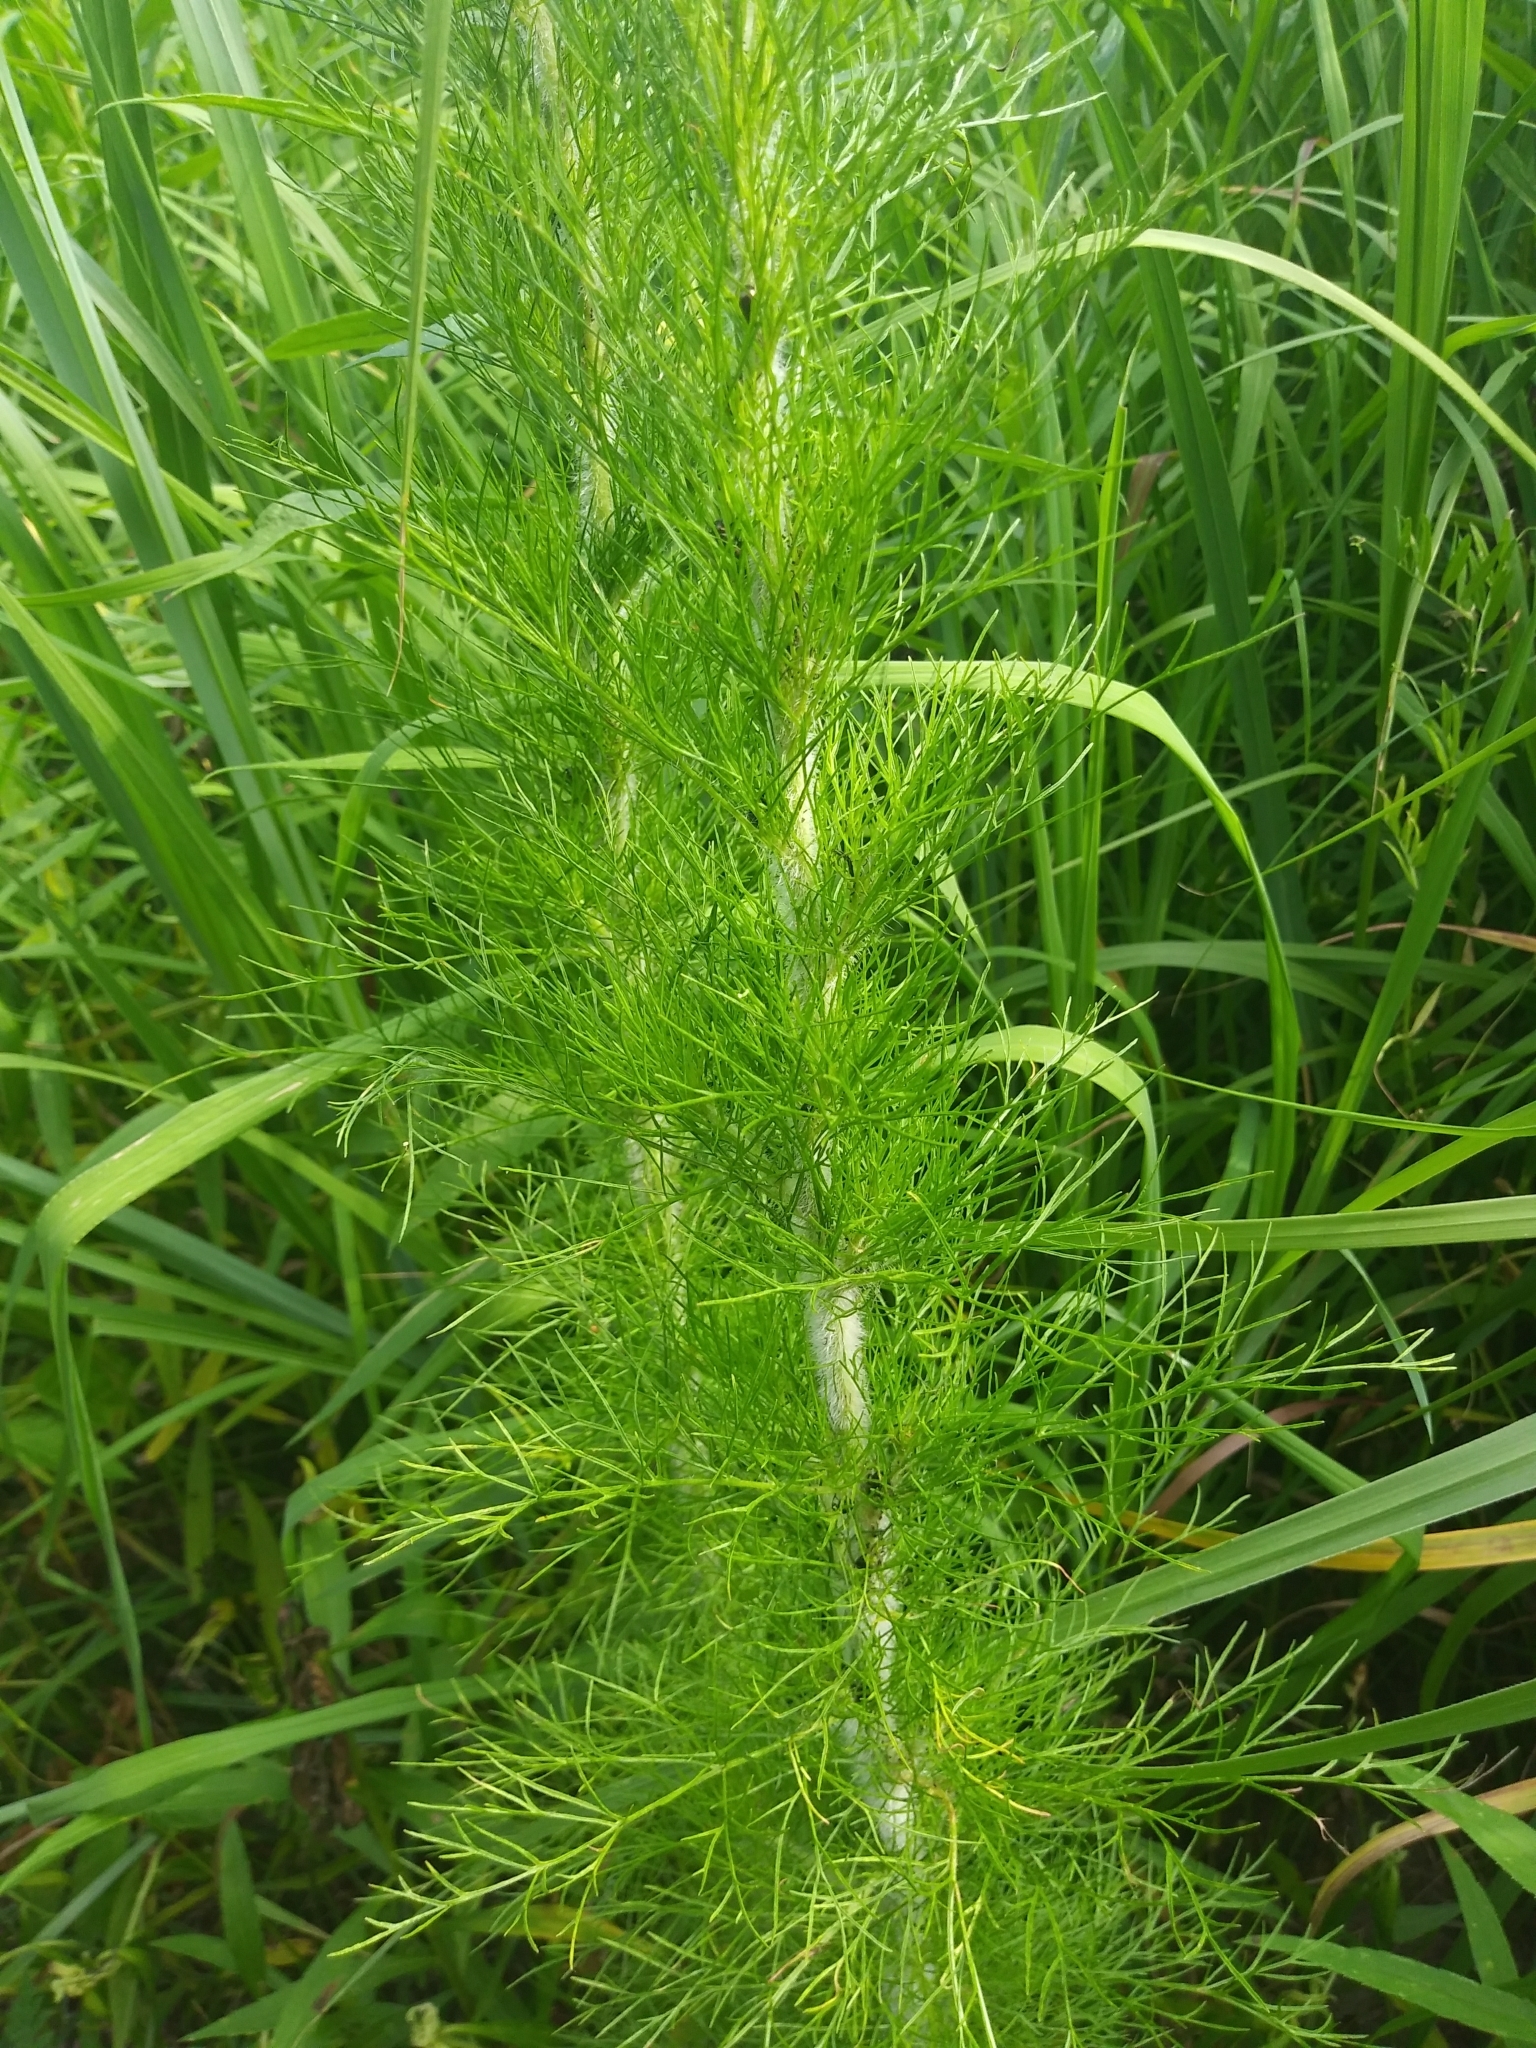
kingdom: Plantae
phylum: Tracheophyta
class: Magnoliopsida
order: Asterales
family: Asteraceae
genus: Eupatorium
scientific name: Eupatorium capillifolium
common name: Dog-fennel
